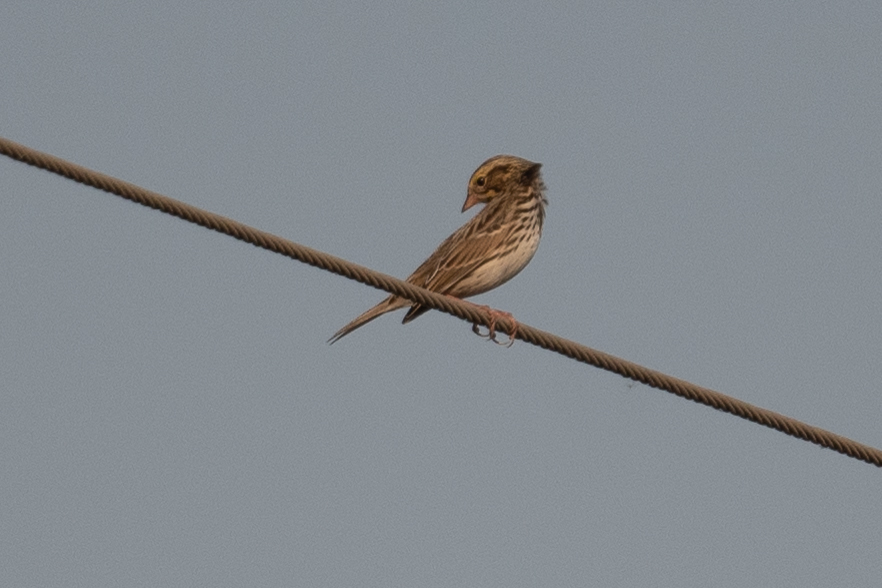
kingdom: Animalia
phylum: Chordata
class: Aves
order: Passeriformes
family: Passerellidae
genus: Passerculus
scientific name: Passerculus sandwichensis
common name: Savannah sparrow
